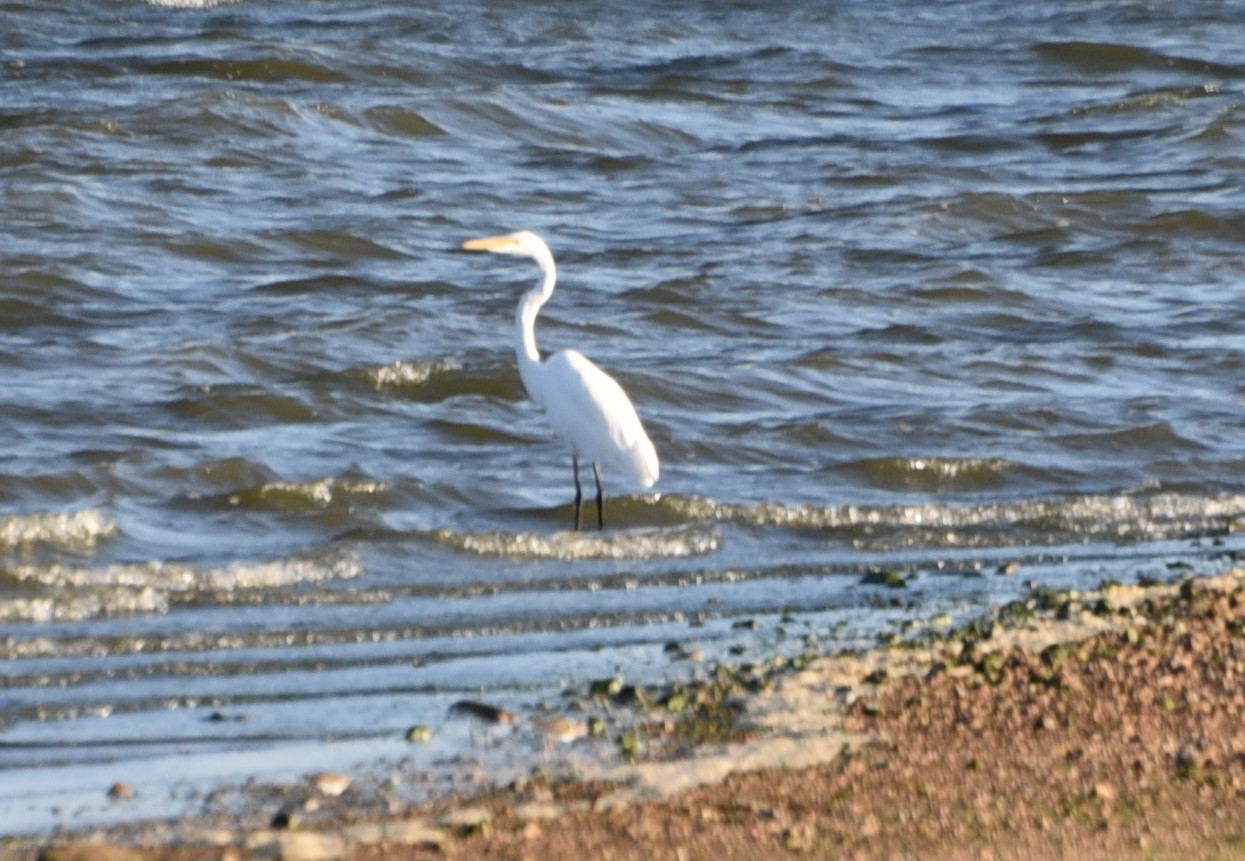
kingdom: Animalia
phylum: Chordata
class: Aves
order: Pelecaniformes
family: Ardeidae
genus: Ardea
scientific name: Ardea alba
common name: Great egret
